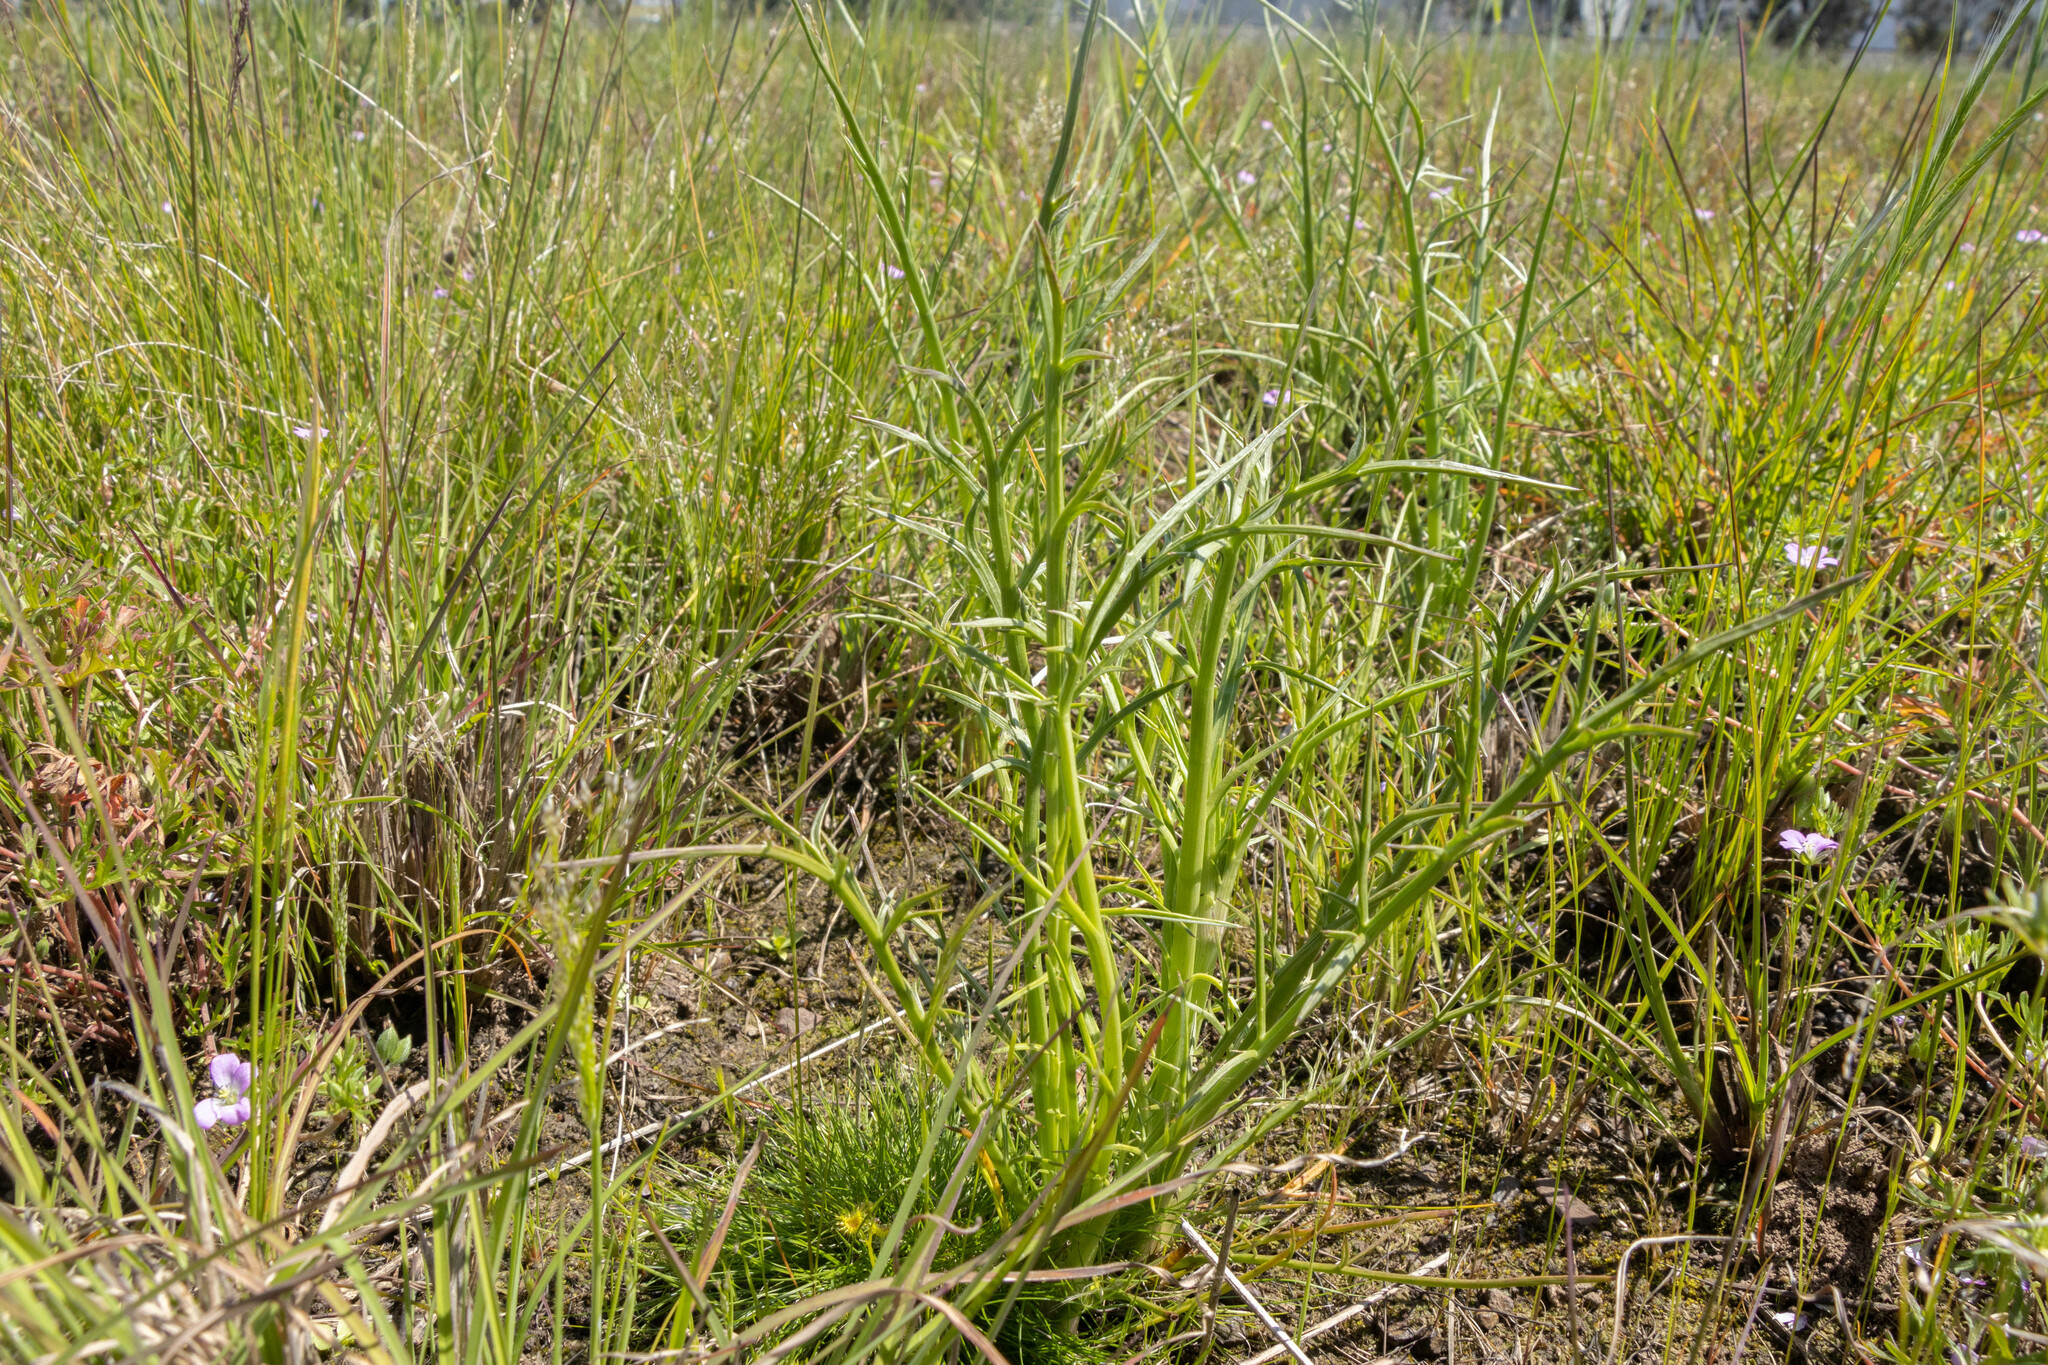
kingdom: Plantae
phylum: Tracheophyta
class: Magnoliopsida
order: Apiales
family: Apiaceae
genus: Eryngium
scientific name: Eryngium ovinum
